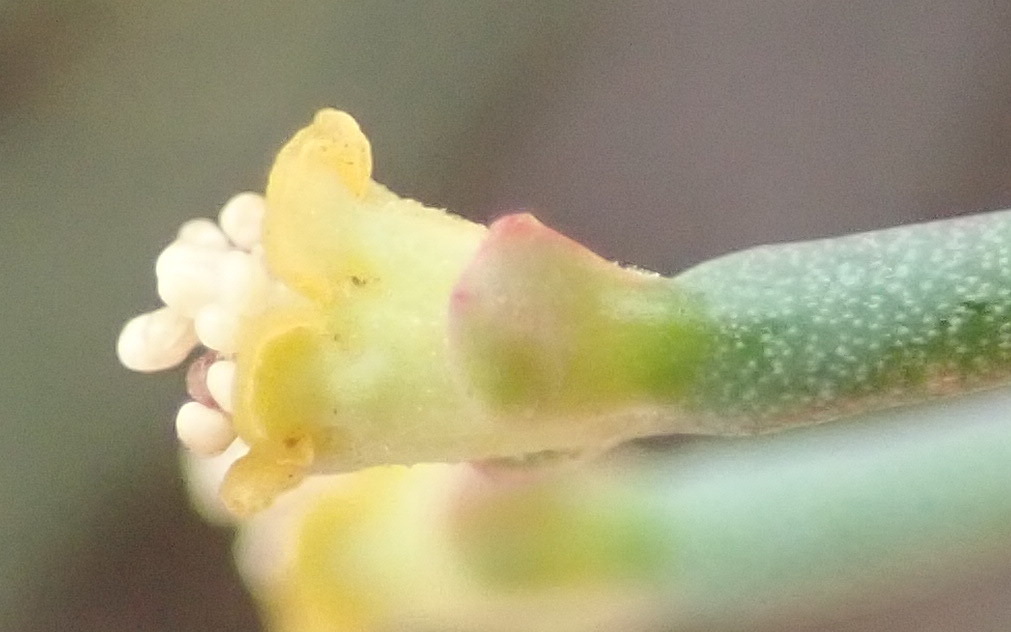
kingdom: Plantae
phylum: Tracheophyta
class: Magnoliopsida
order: Malpighiales
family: Euphorbiaceae
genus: Euphorbia
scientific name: Euphorbia tenax
